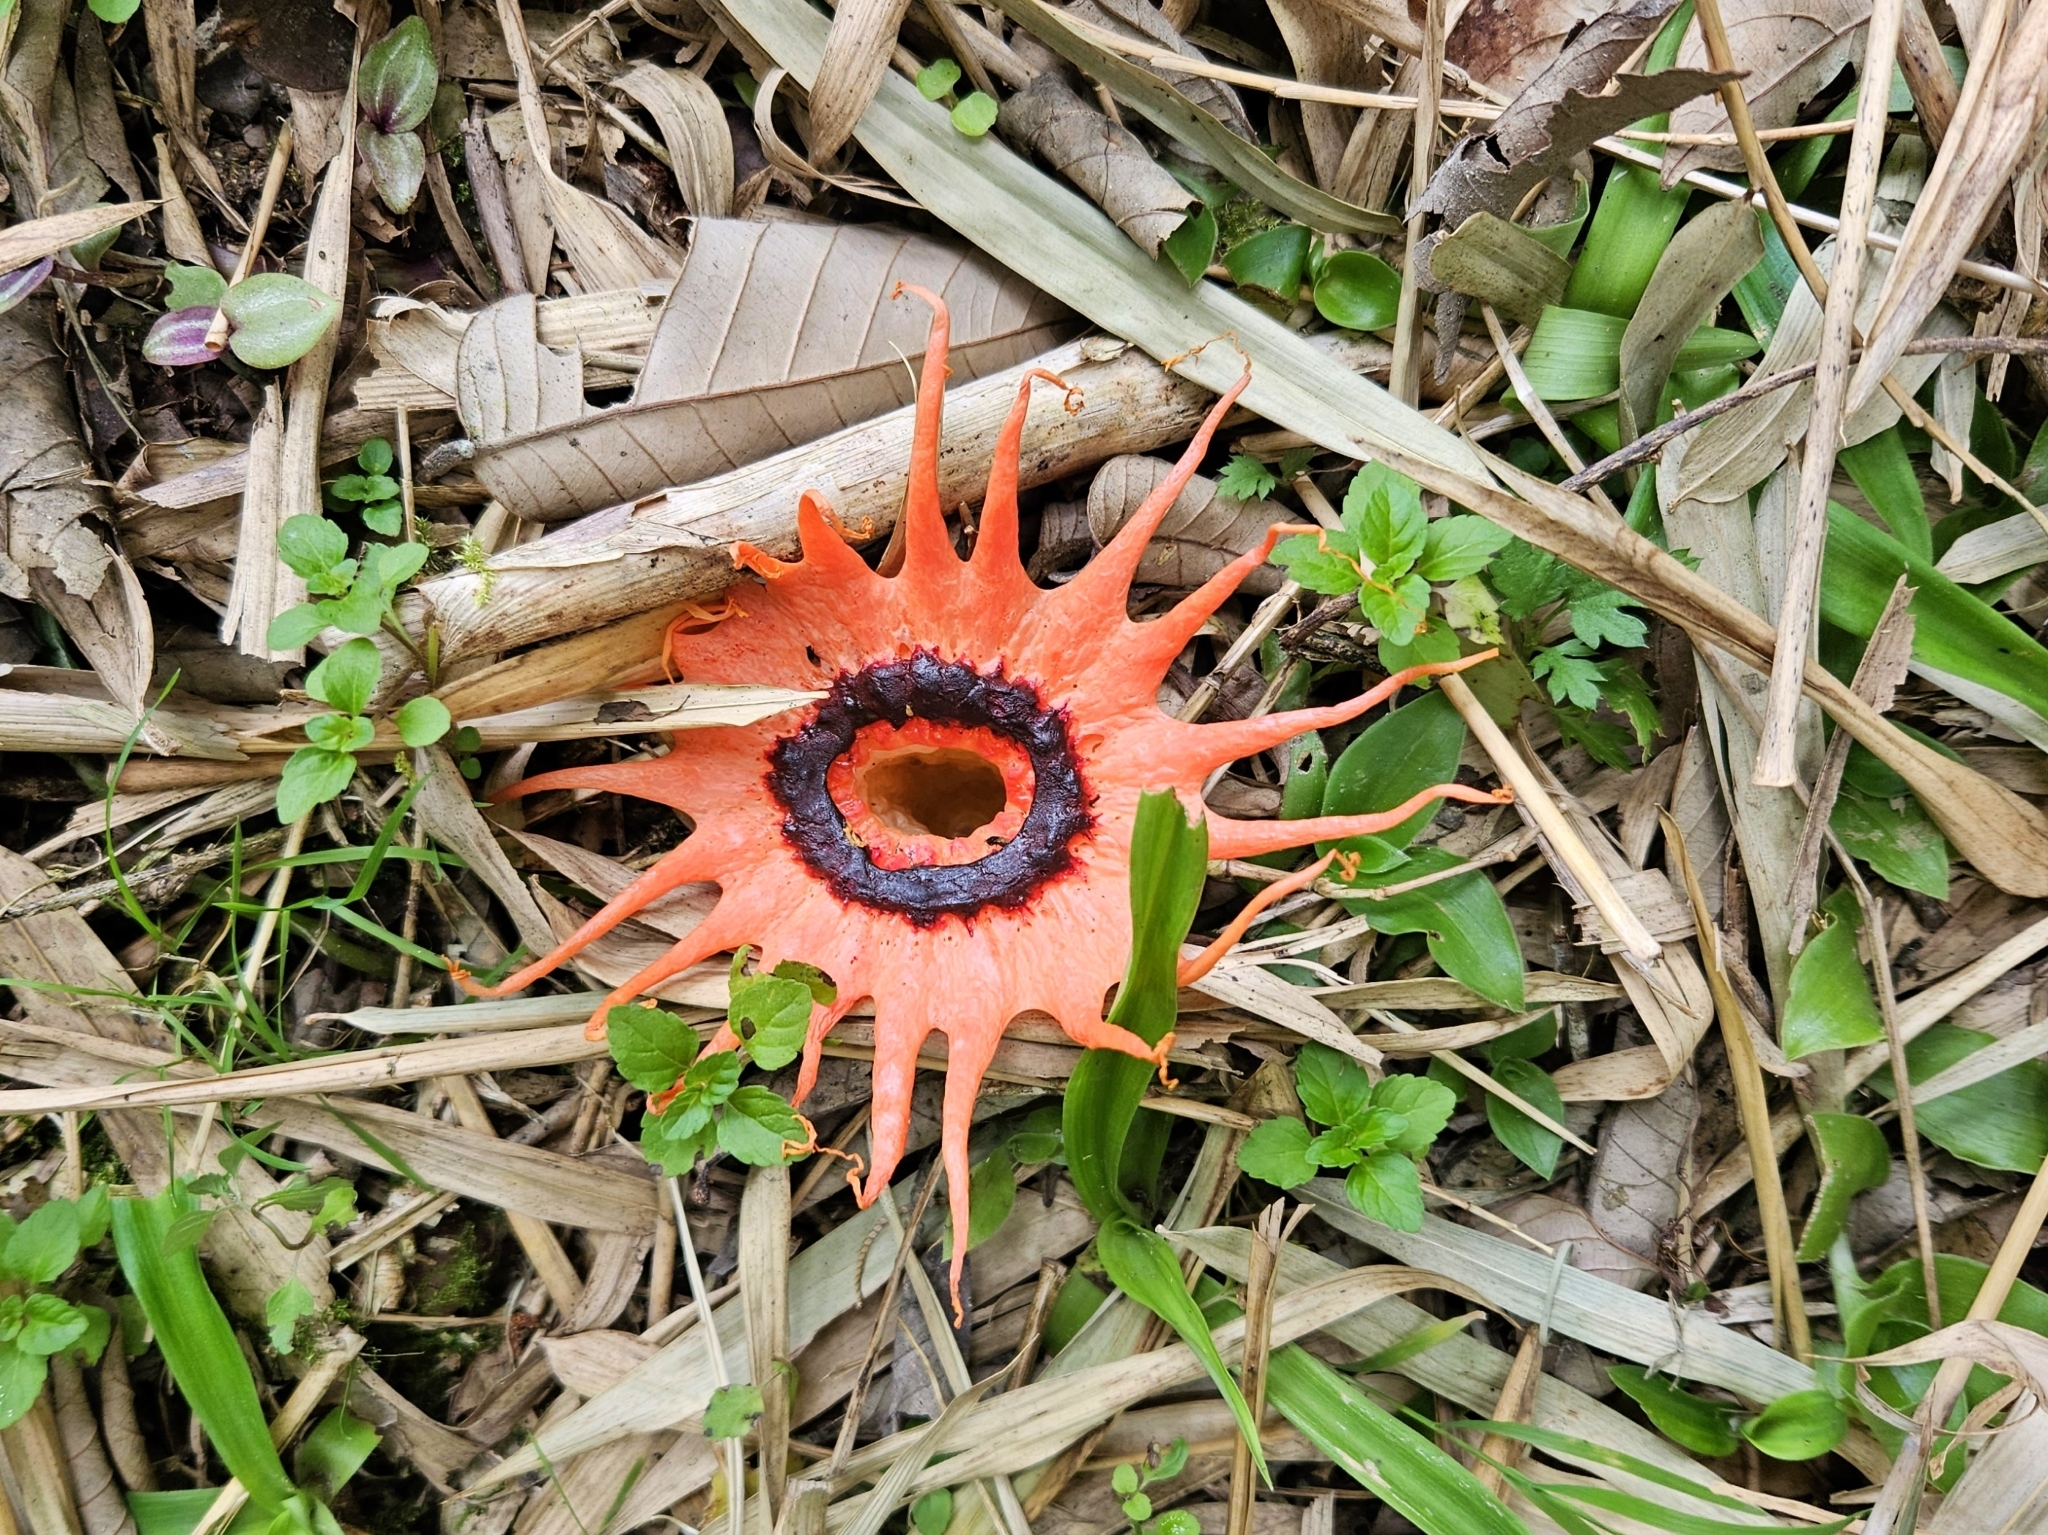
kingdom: Fungi
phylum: Basidiomycota
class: Agaricomycetes
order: Phallales
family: Phallaceae
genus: Aseroe
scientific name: Aseroe rubra
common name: Starfish fungus
